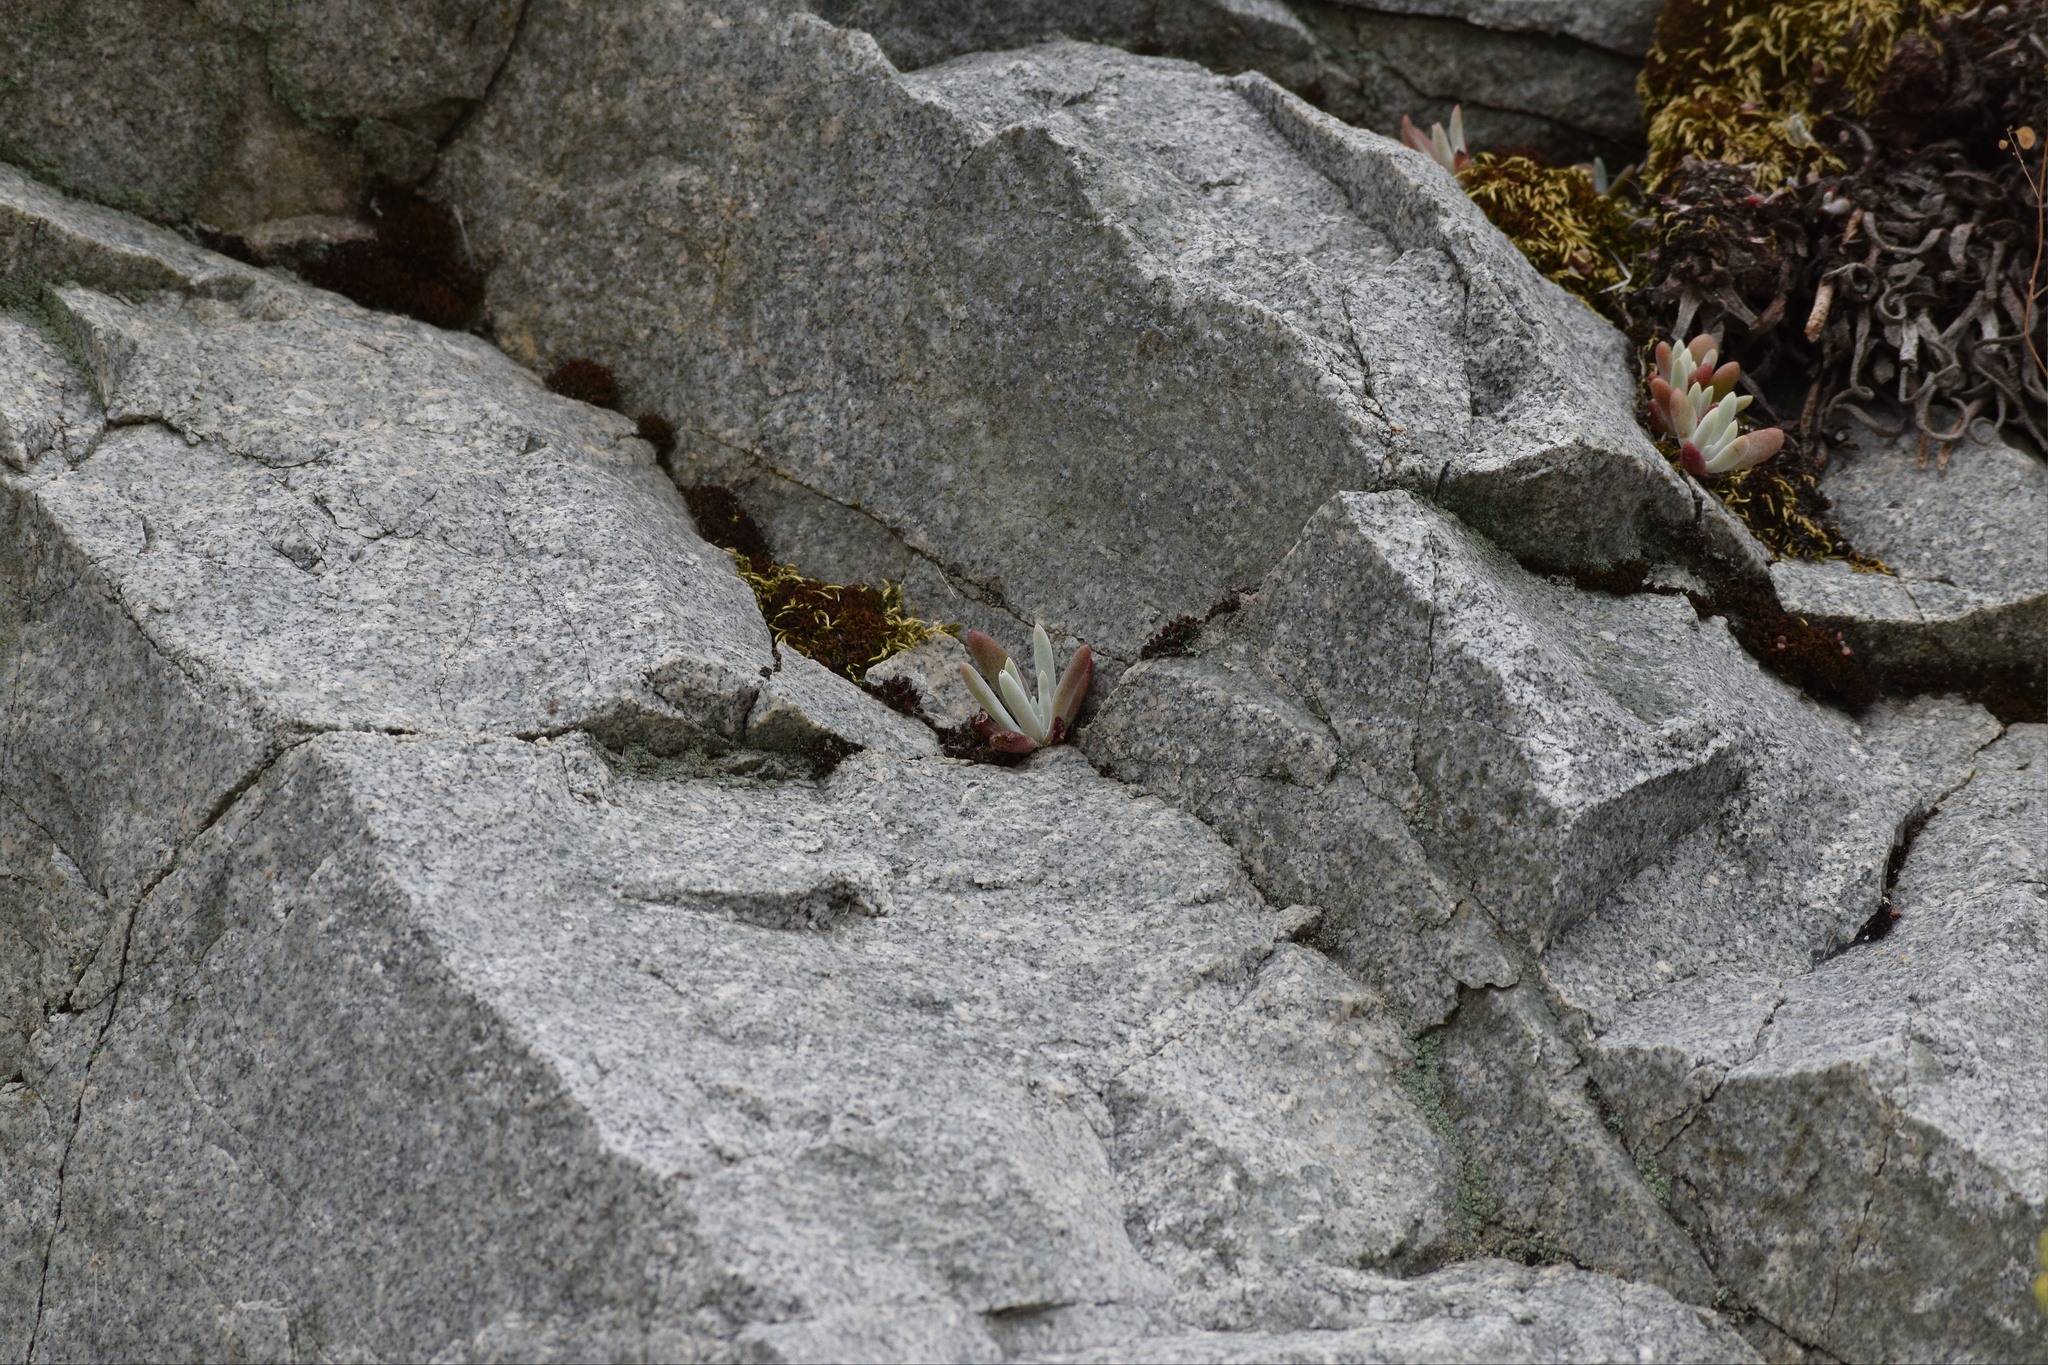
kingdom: Plantae
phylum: Tracheophyta
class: Magnoliopsida
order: Saxifragales
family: Crassulaceae
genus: Dudleya
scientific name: Dudleya densiflora
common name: San gabriel mountains dudleya
